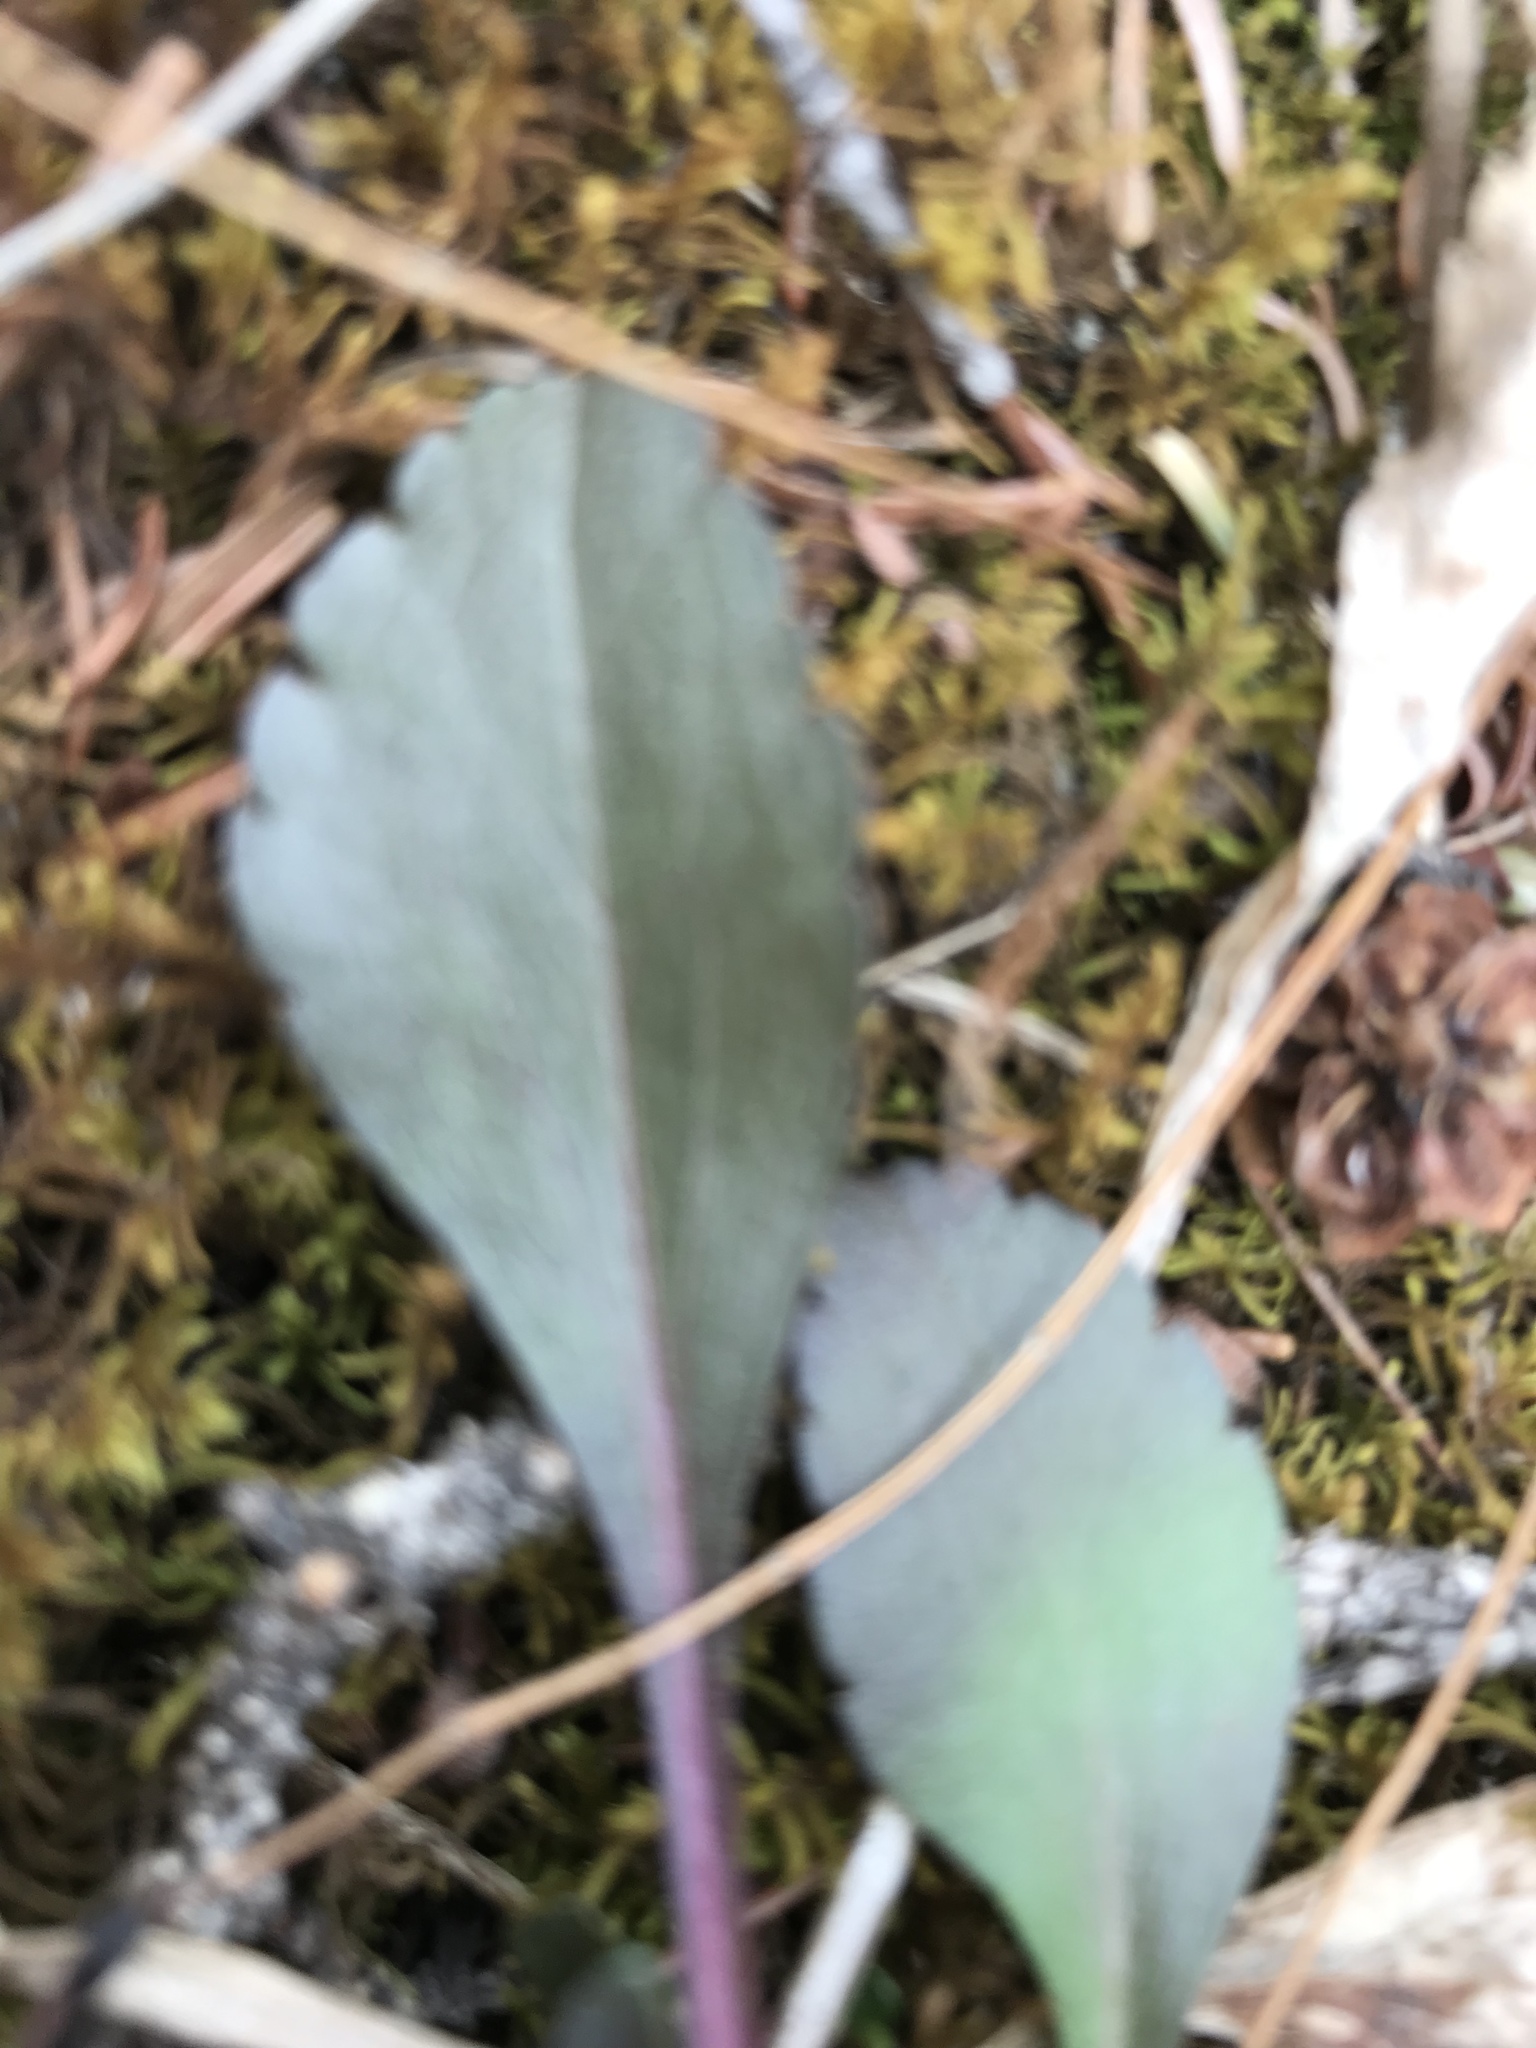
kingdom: Plantae
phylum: Tracheophyta
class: Magnoliopsida
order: Asterales
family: Asteraceae
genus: Packera
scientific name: Packera streptanthifolia
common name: Rocky mountain butterweed
